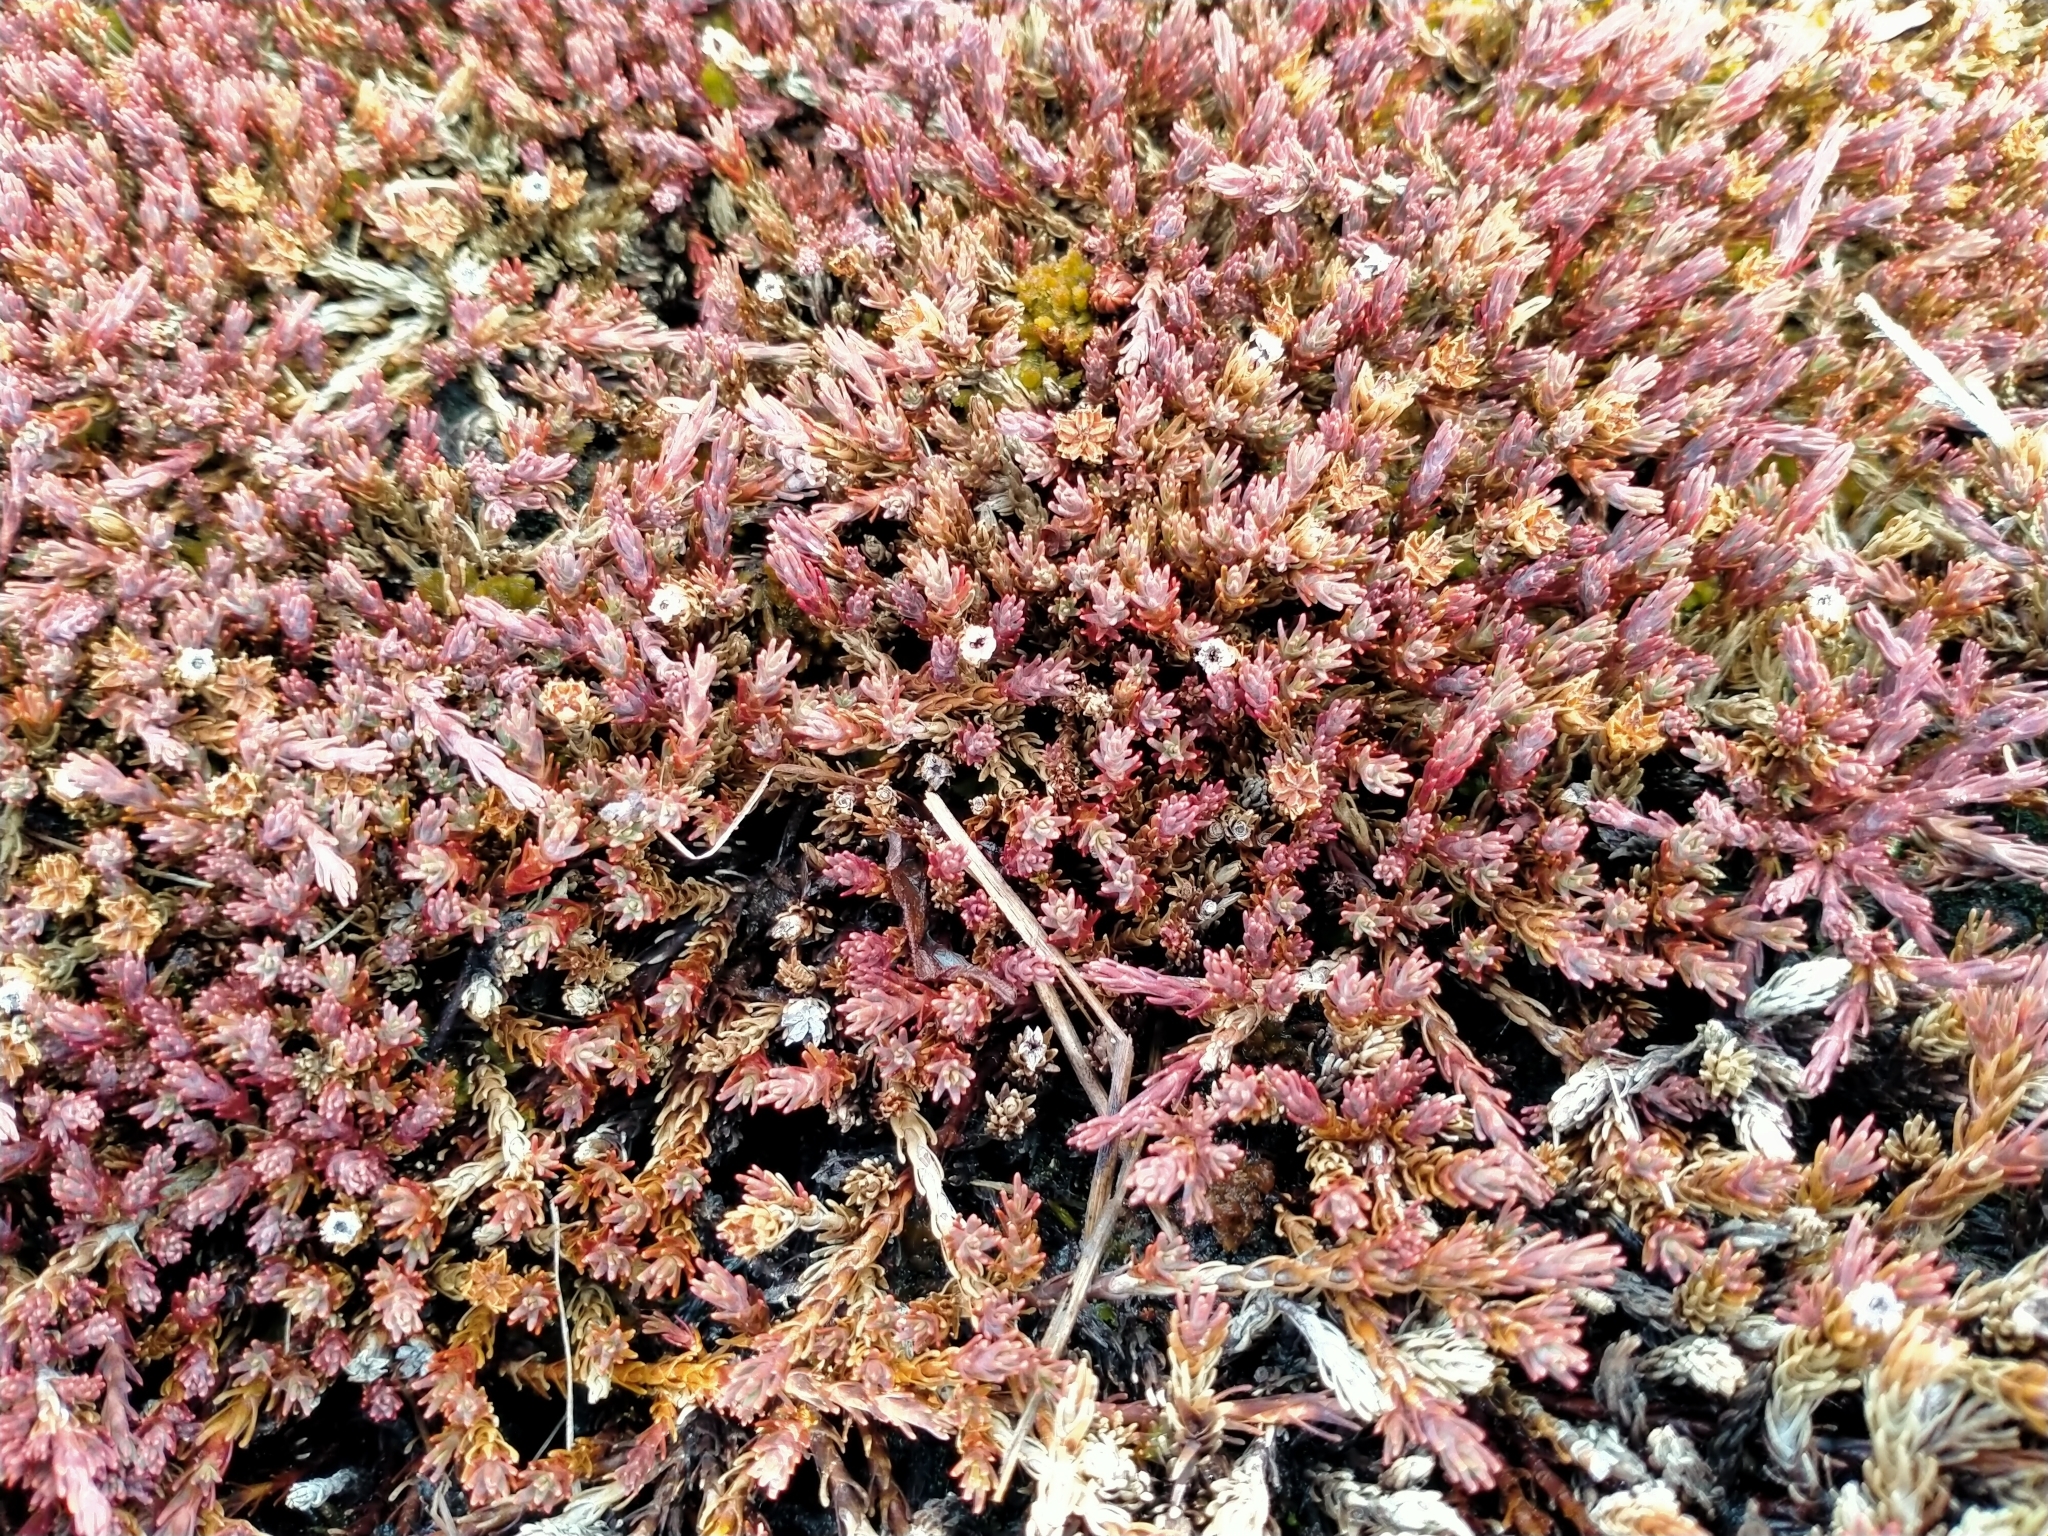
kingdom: Plantae
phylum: Tracheophyta
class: Magnoliopsida
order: Ericales
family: Ericaceae
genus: Dracophyllum
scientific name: Dracophyllum prostratum
